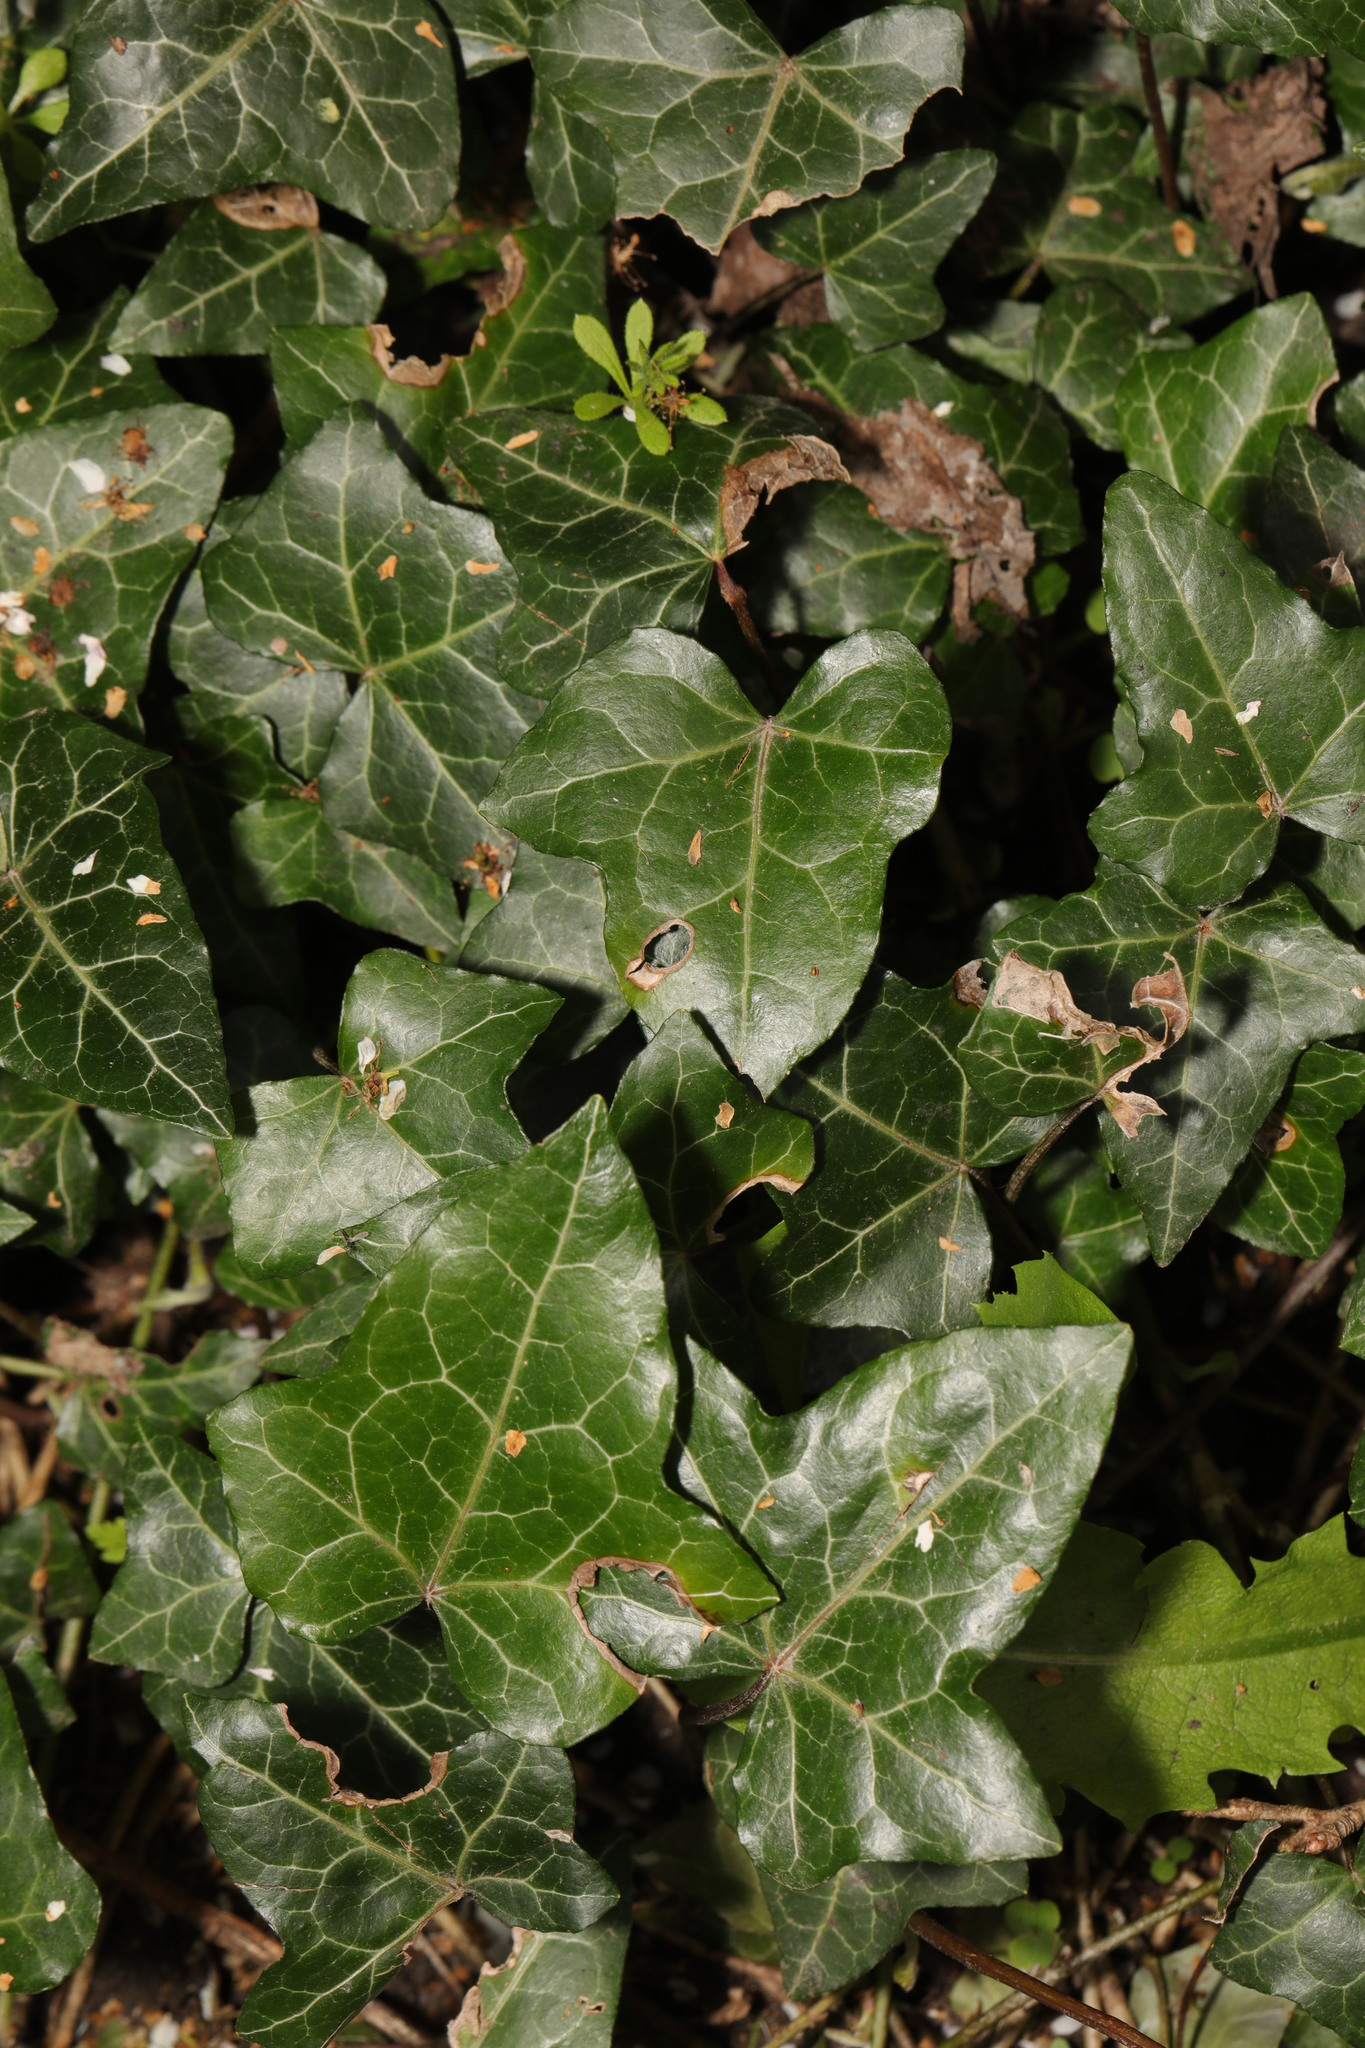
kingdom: Plantae
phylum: Tracheophyta
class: Magnoliopsida
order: Apiales
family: Araliaceae
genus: Hedera
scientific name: Hedera helix
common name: Ivy
